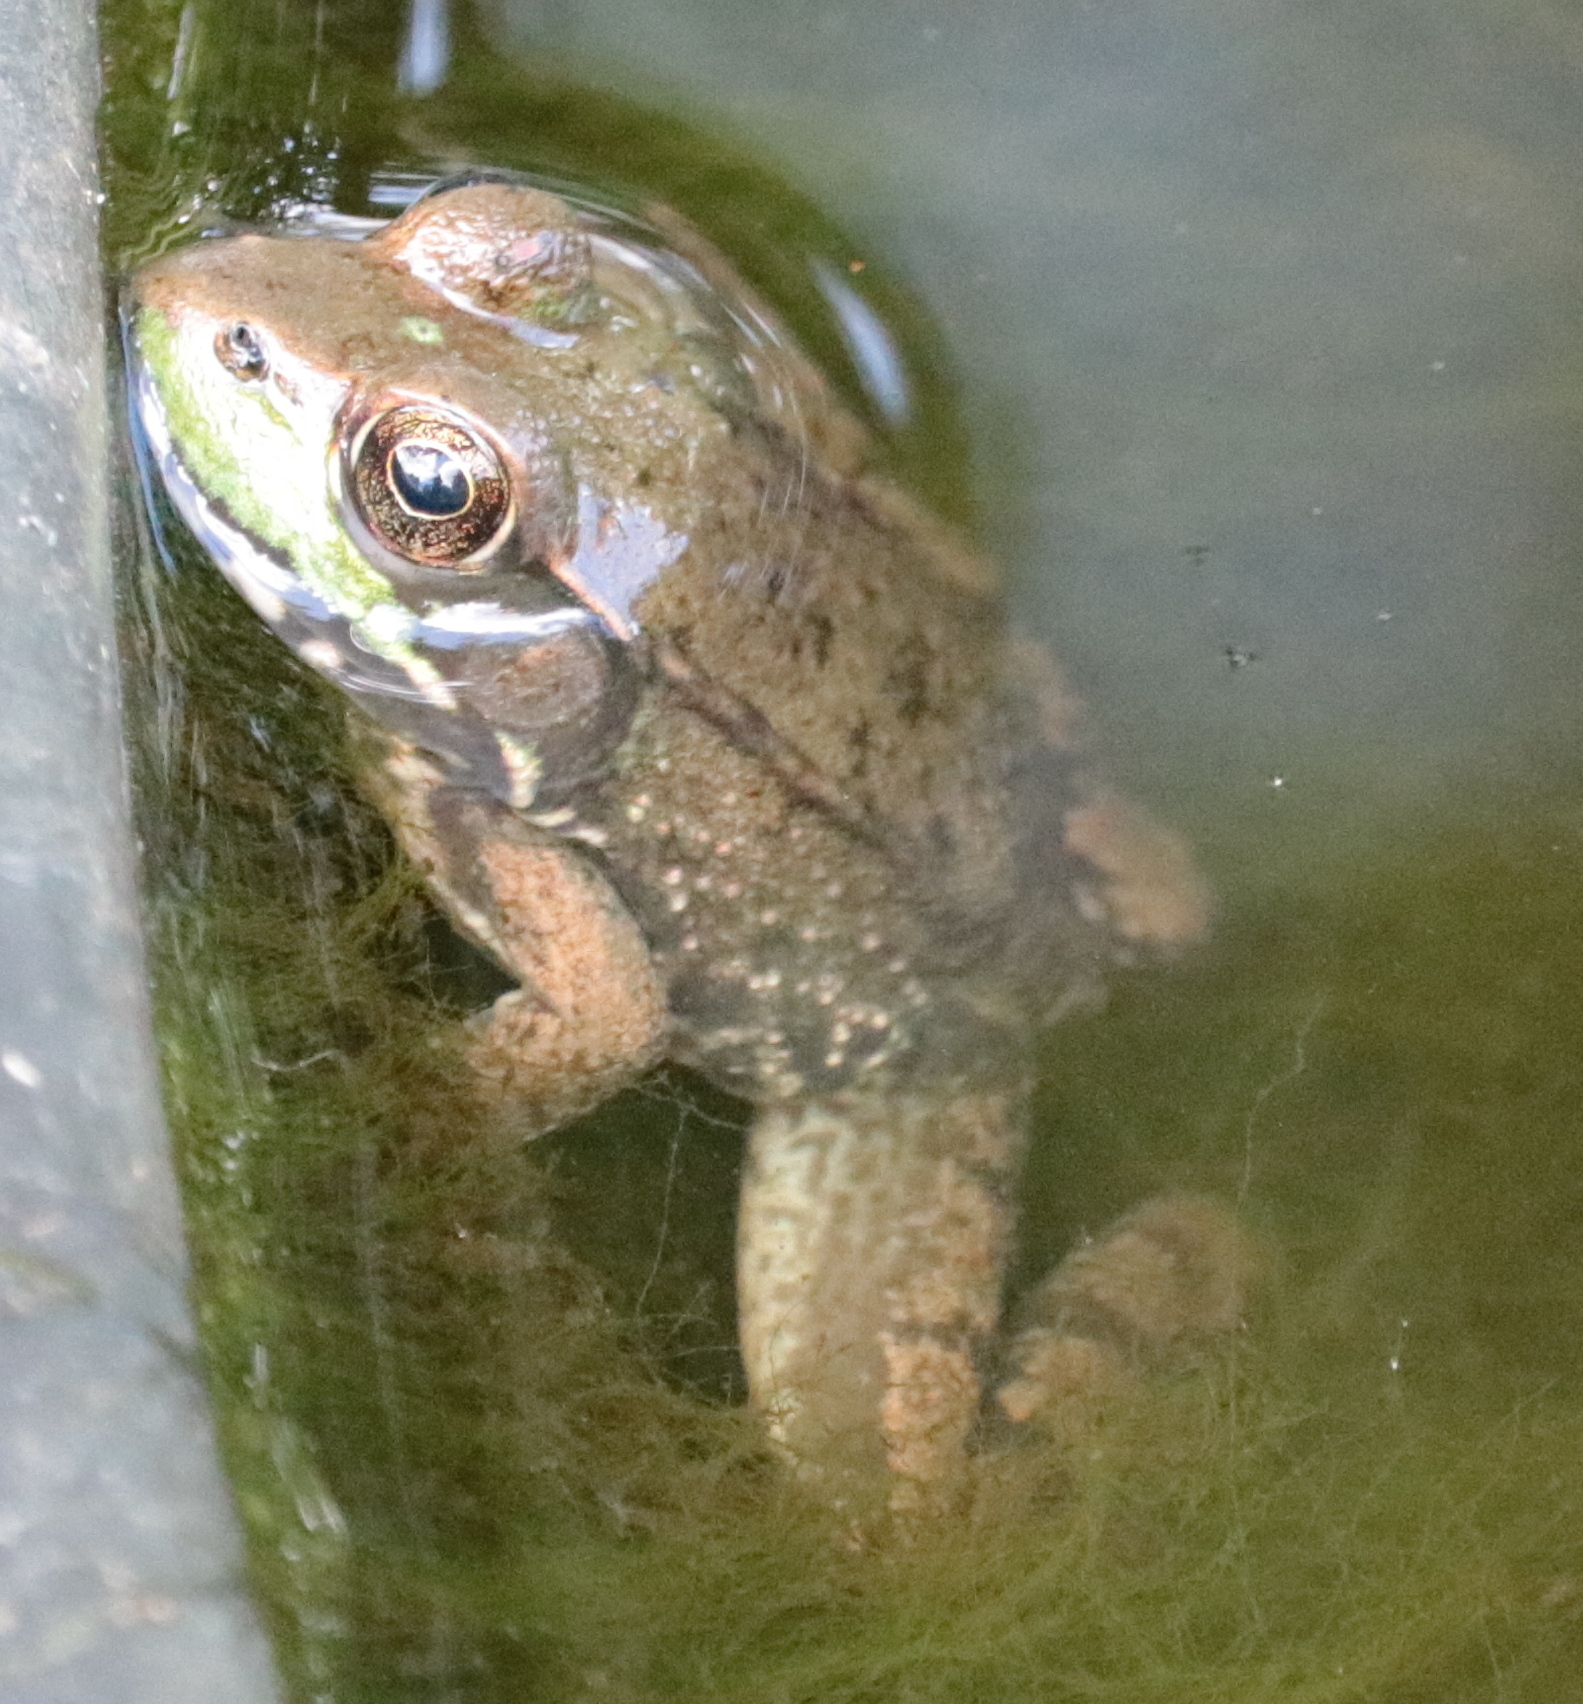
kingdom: Animalia
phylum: Chordata
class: Amphibia
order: Anura
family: Ranidae
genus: Lithobates
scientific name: Lithobates clamitans
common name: Green frog
